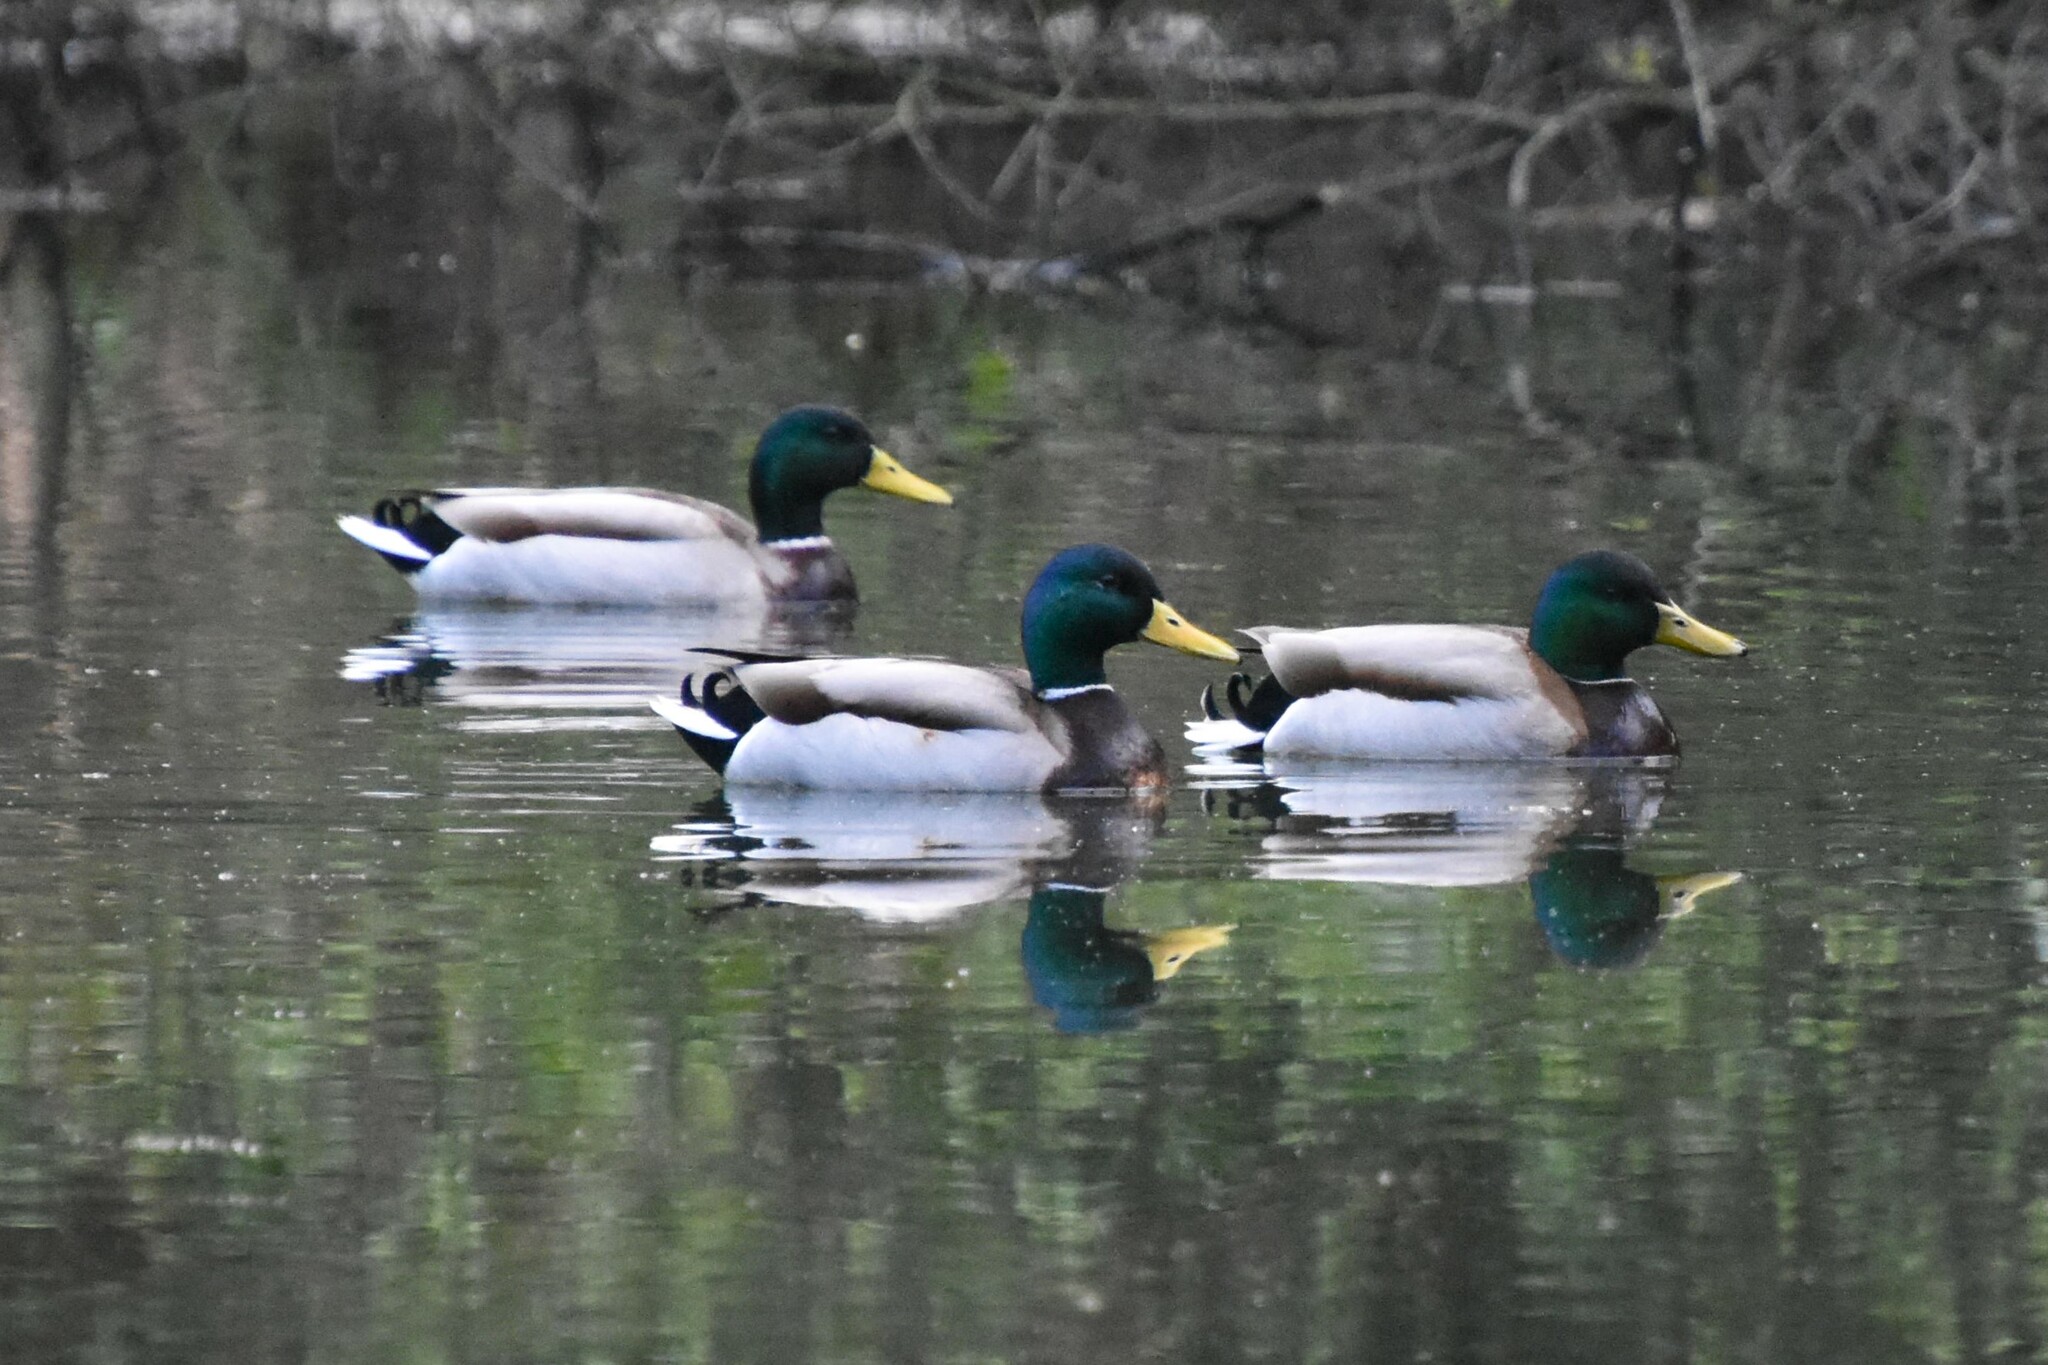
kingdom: Animalia
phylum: Chordata
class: Aves
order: Anseriformes
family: Anatidae
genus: Anas
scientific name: Anas platyrhynchos
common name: Mallard
